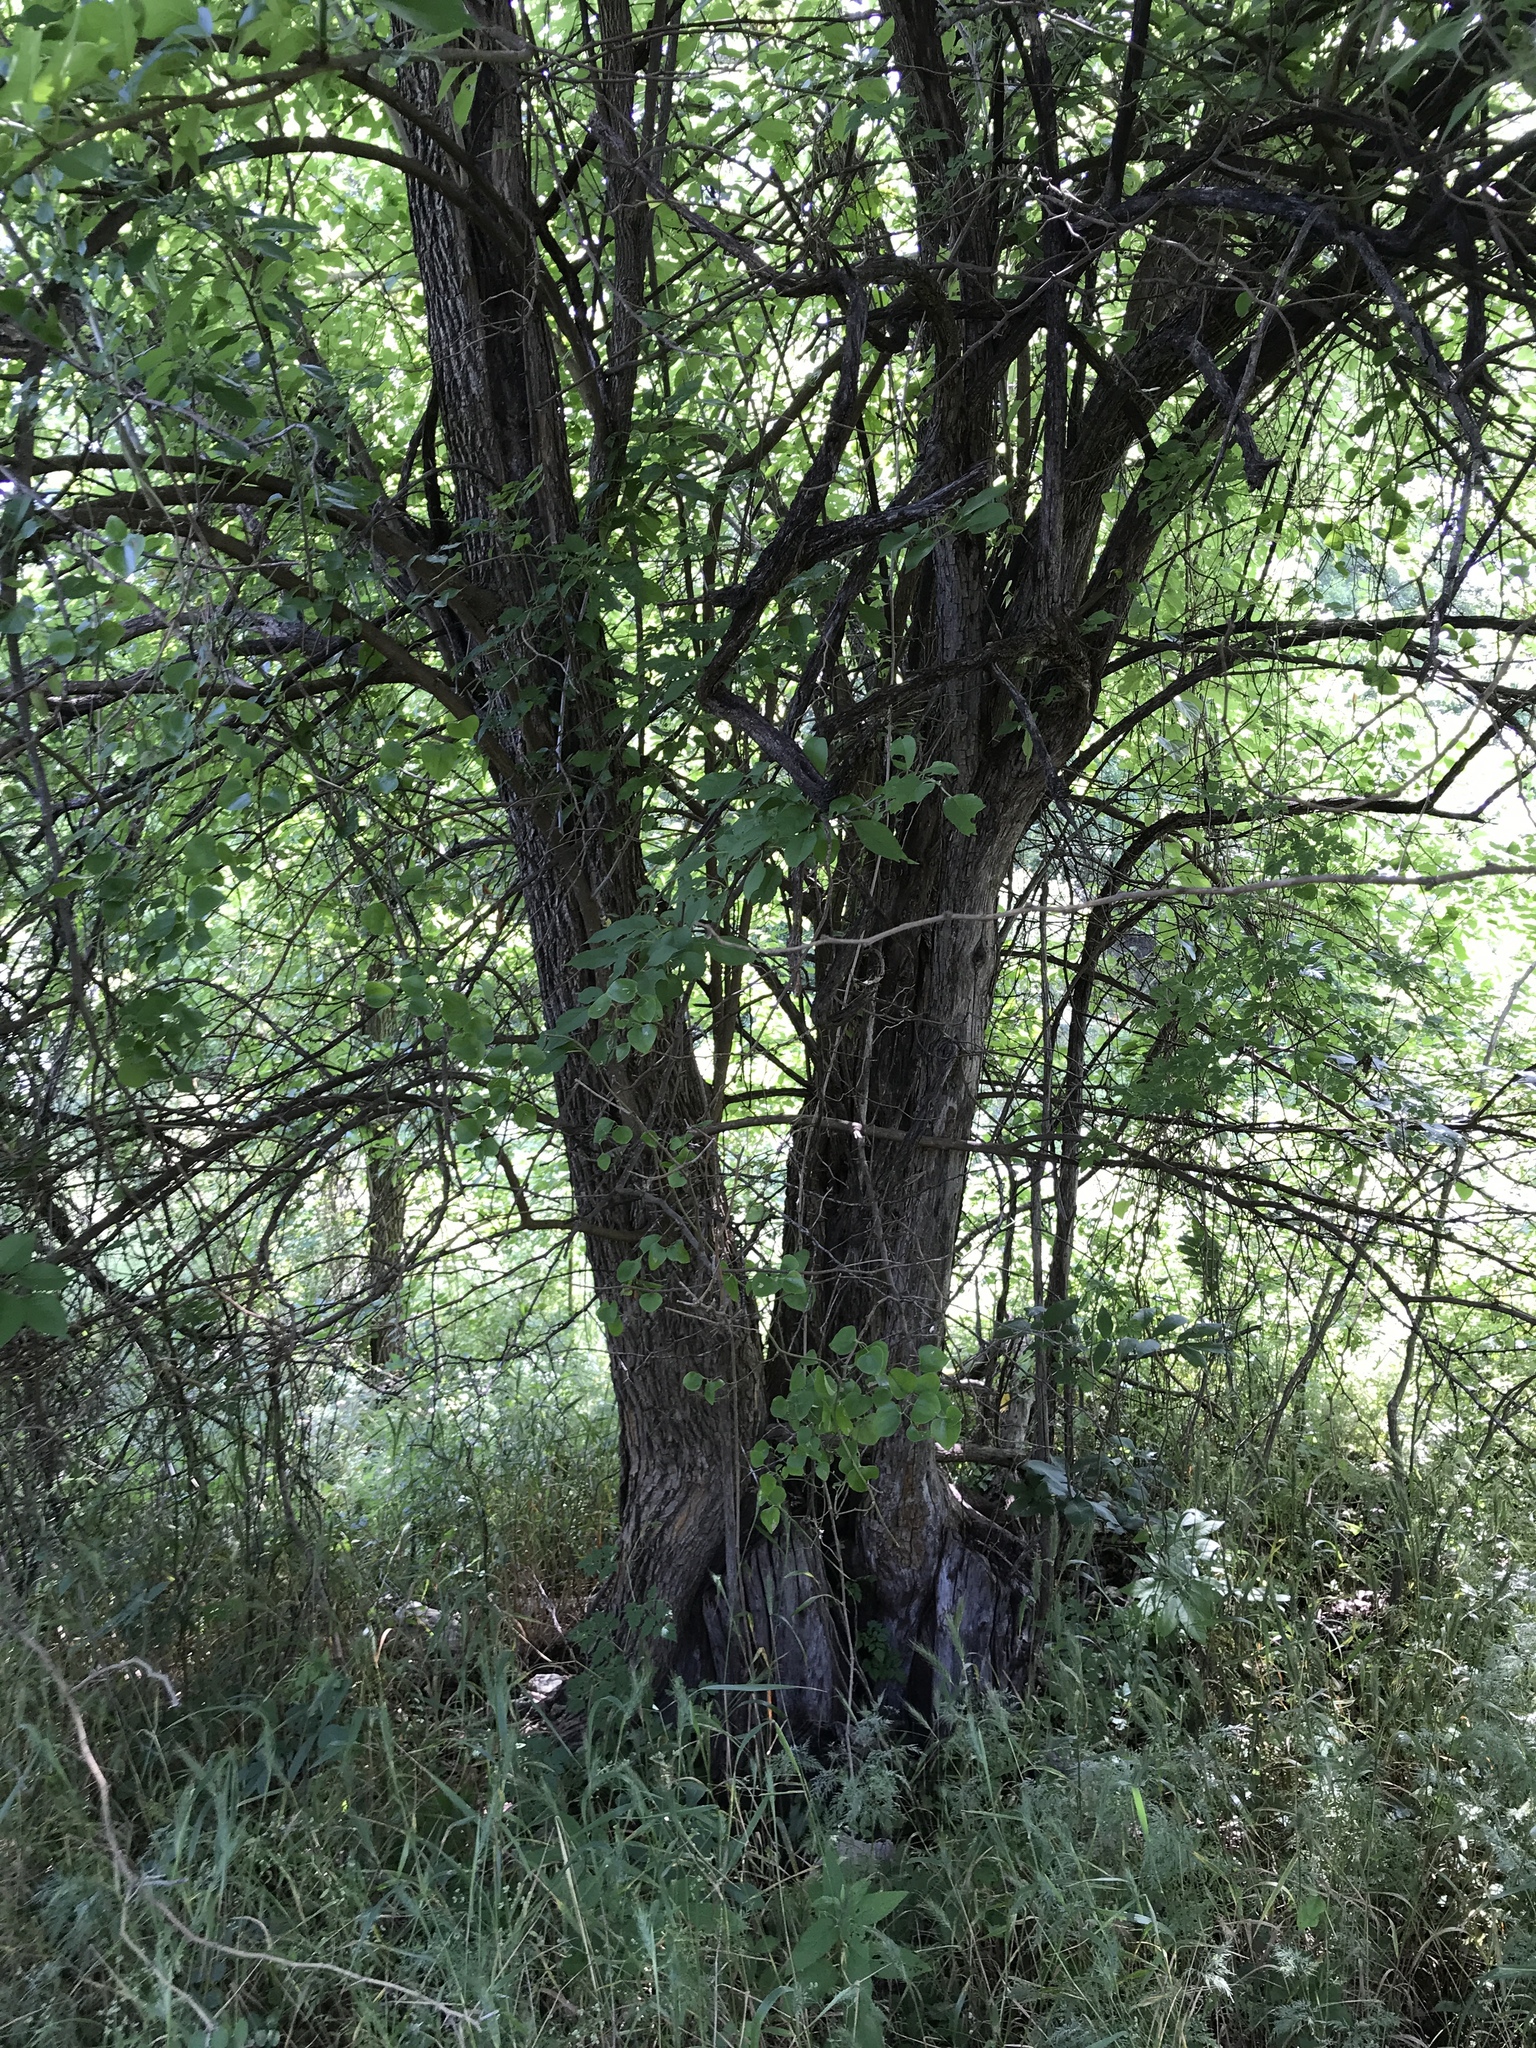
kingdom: Plantae
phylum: Tracheophyta
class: Magnoliopsida
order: Rosales
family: Moraceae
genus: Maclura
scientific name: Maclura pomifera
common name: Osage-orange
